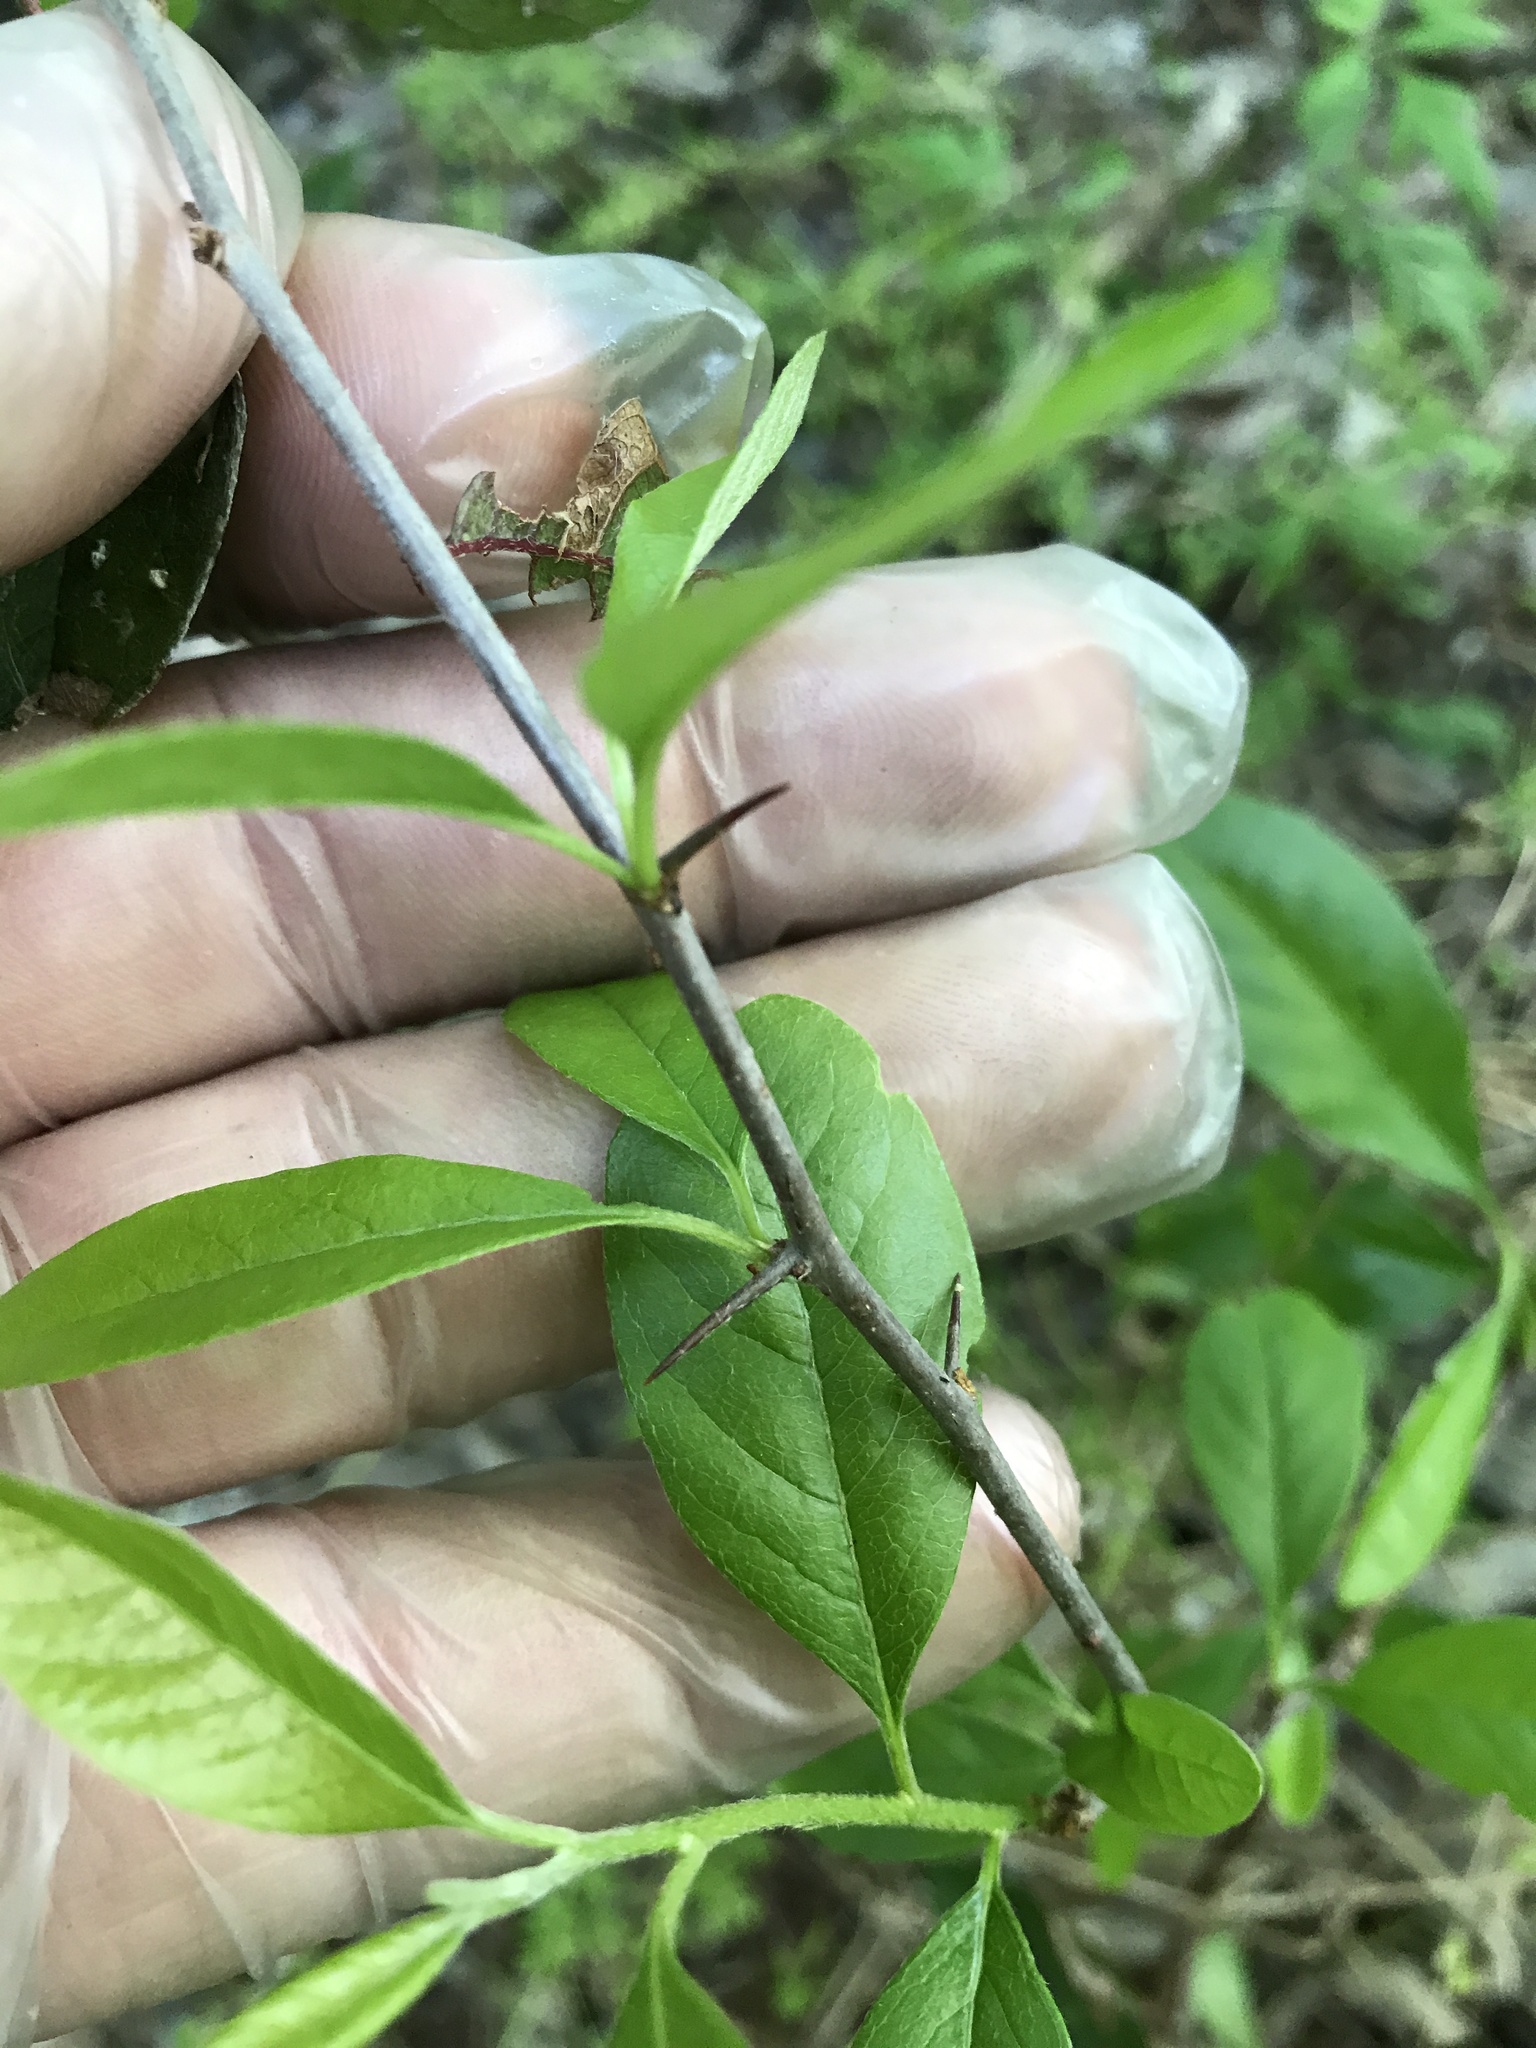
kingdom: Plantae
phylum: Tracheophyta
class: Magnoliopsida
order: Ericales
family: Sapotaceae
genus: Sideroxylon
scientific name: Sideroxylon lanuginosum
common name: Chittamwood
